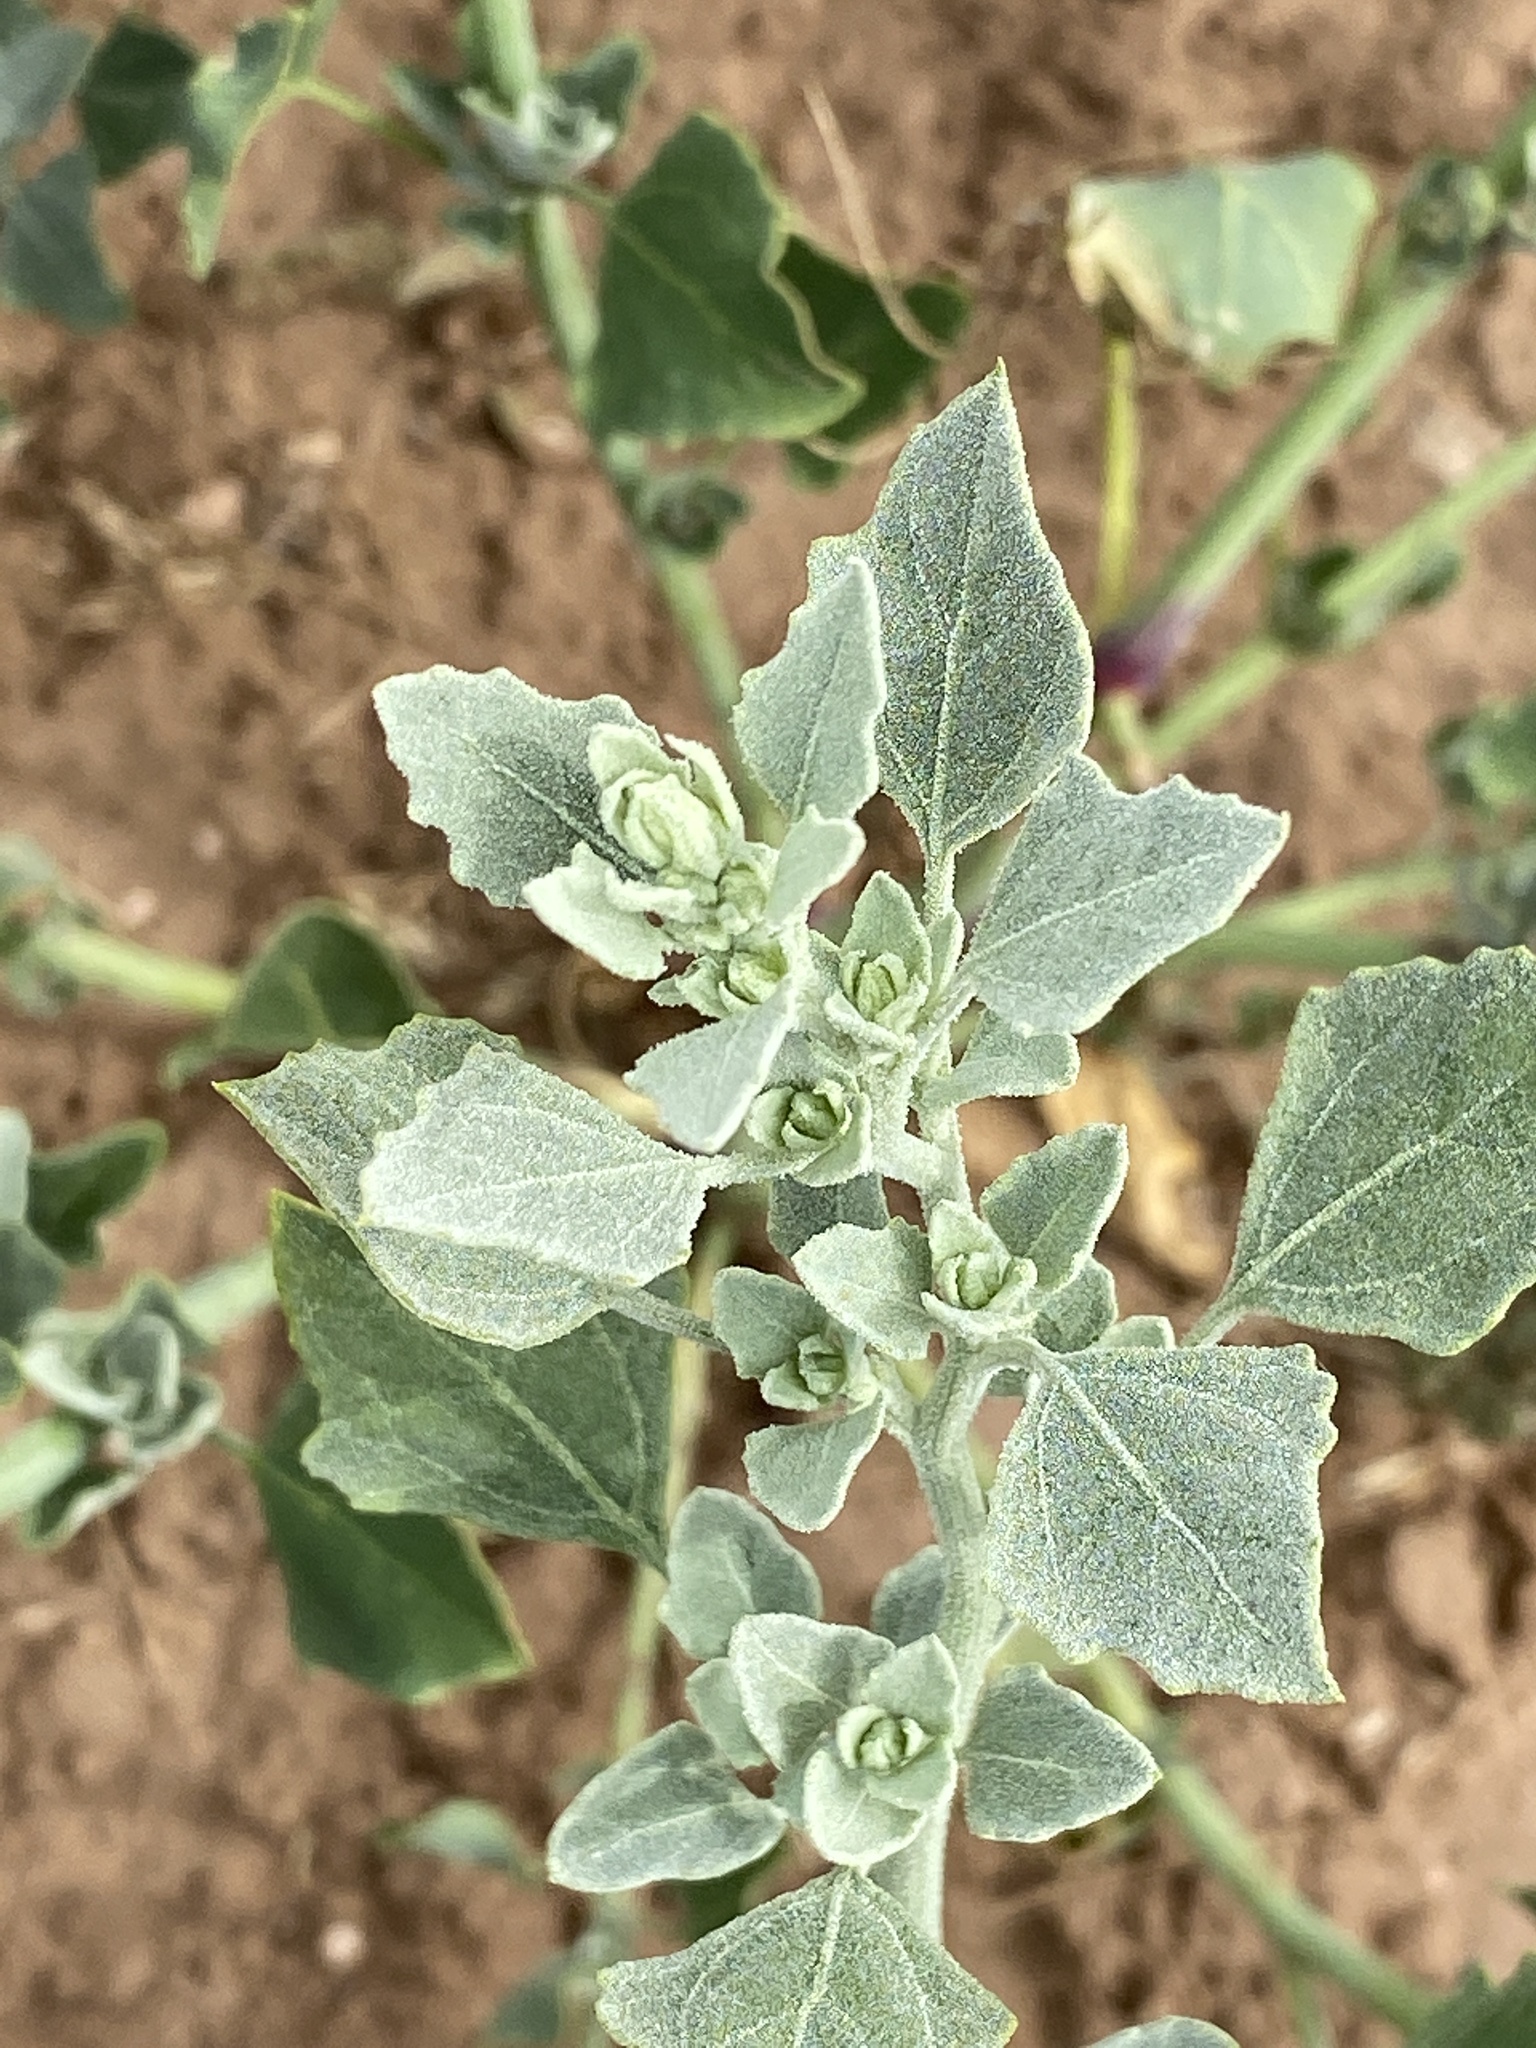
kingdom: Plantae
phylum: Tracheophyta
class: Magnoliopsida
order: Caryophyllales
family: Amaranthaceae
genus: Chenopodium
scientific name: Chenopodium album
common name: Fat-hen
